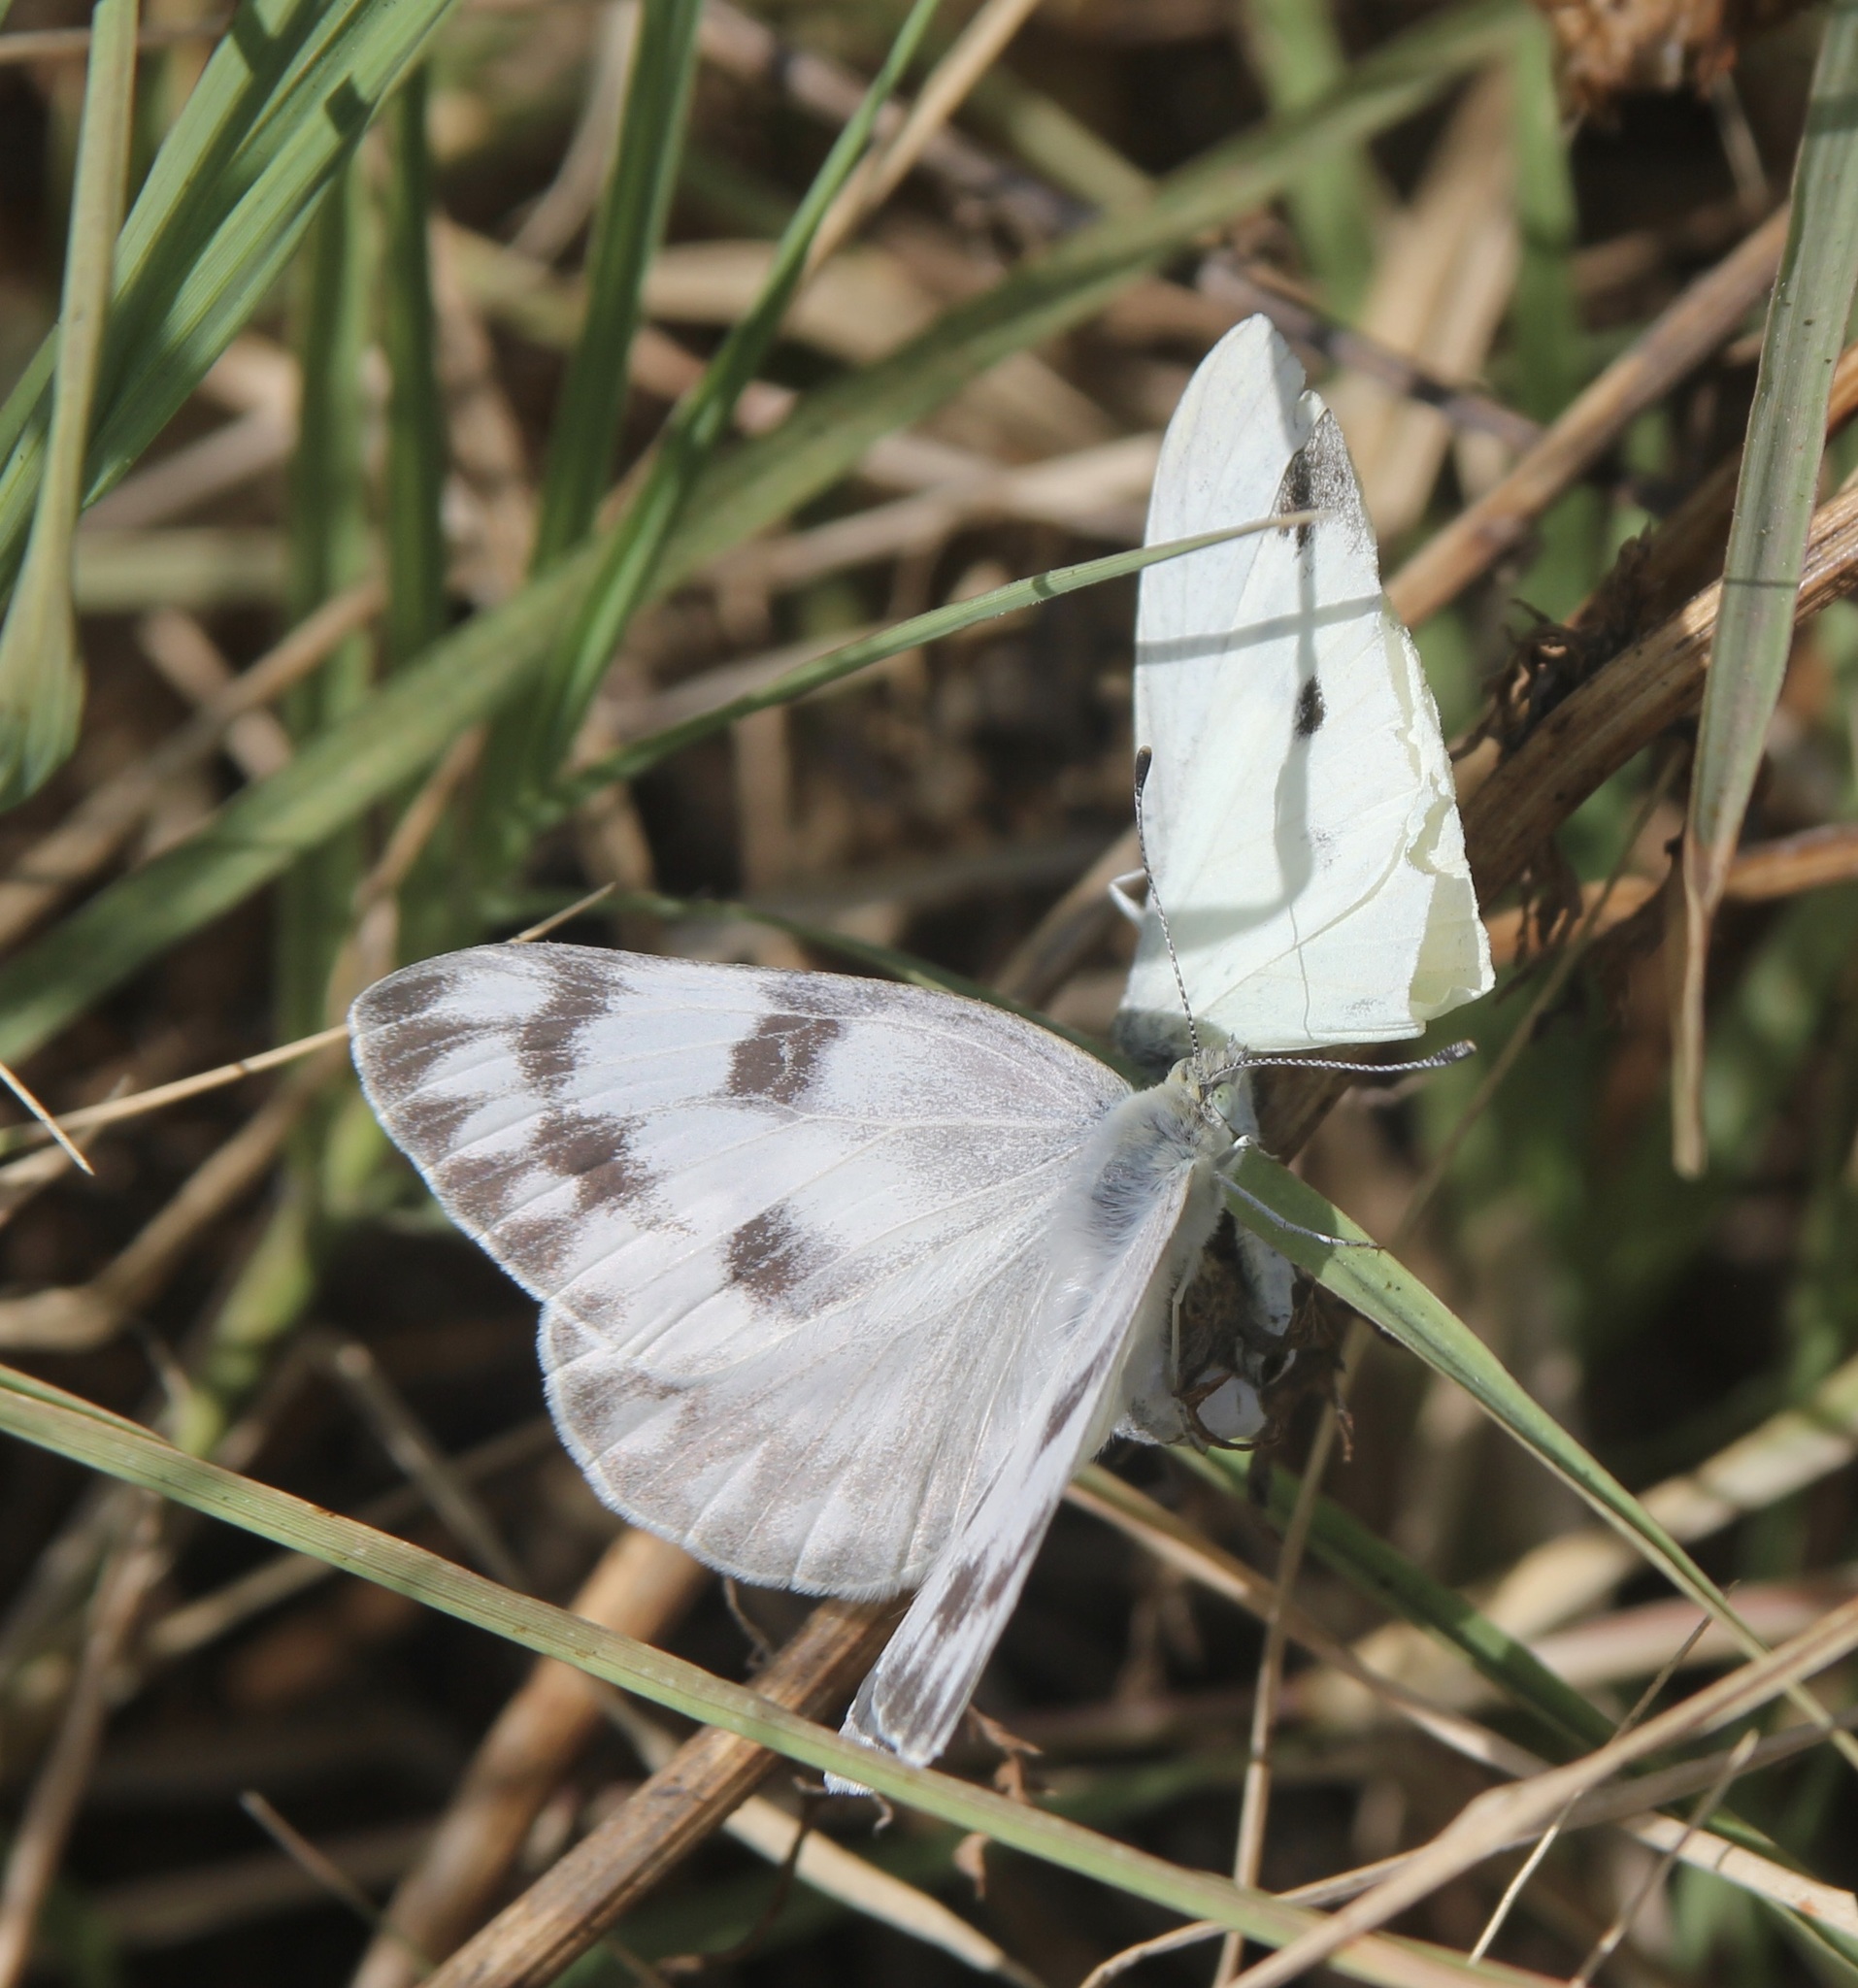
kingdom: Animalia
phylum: Arthropoda
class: Insecta
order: Lepidoptera
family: Pieridae
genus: Pontia
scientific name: Pontia protodice
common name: Checkered white
